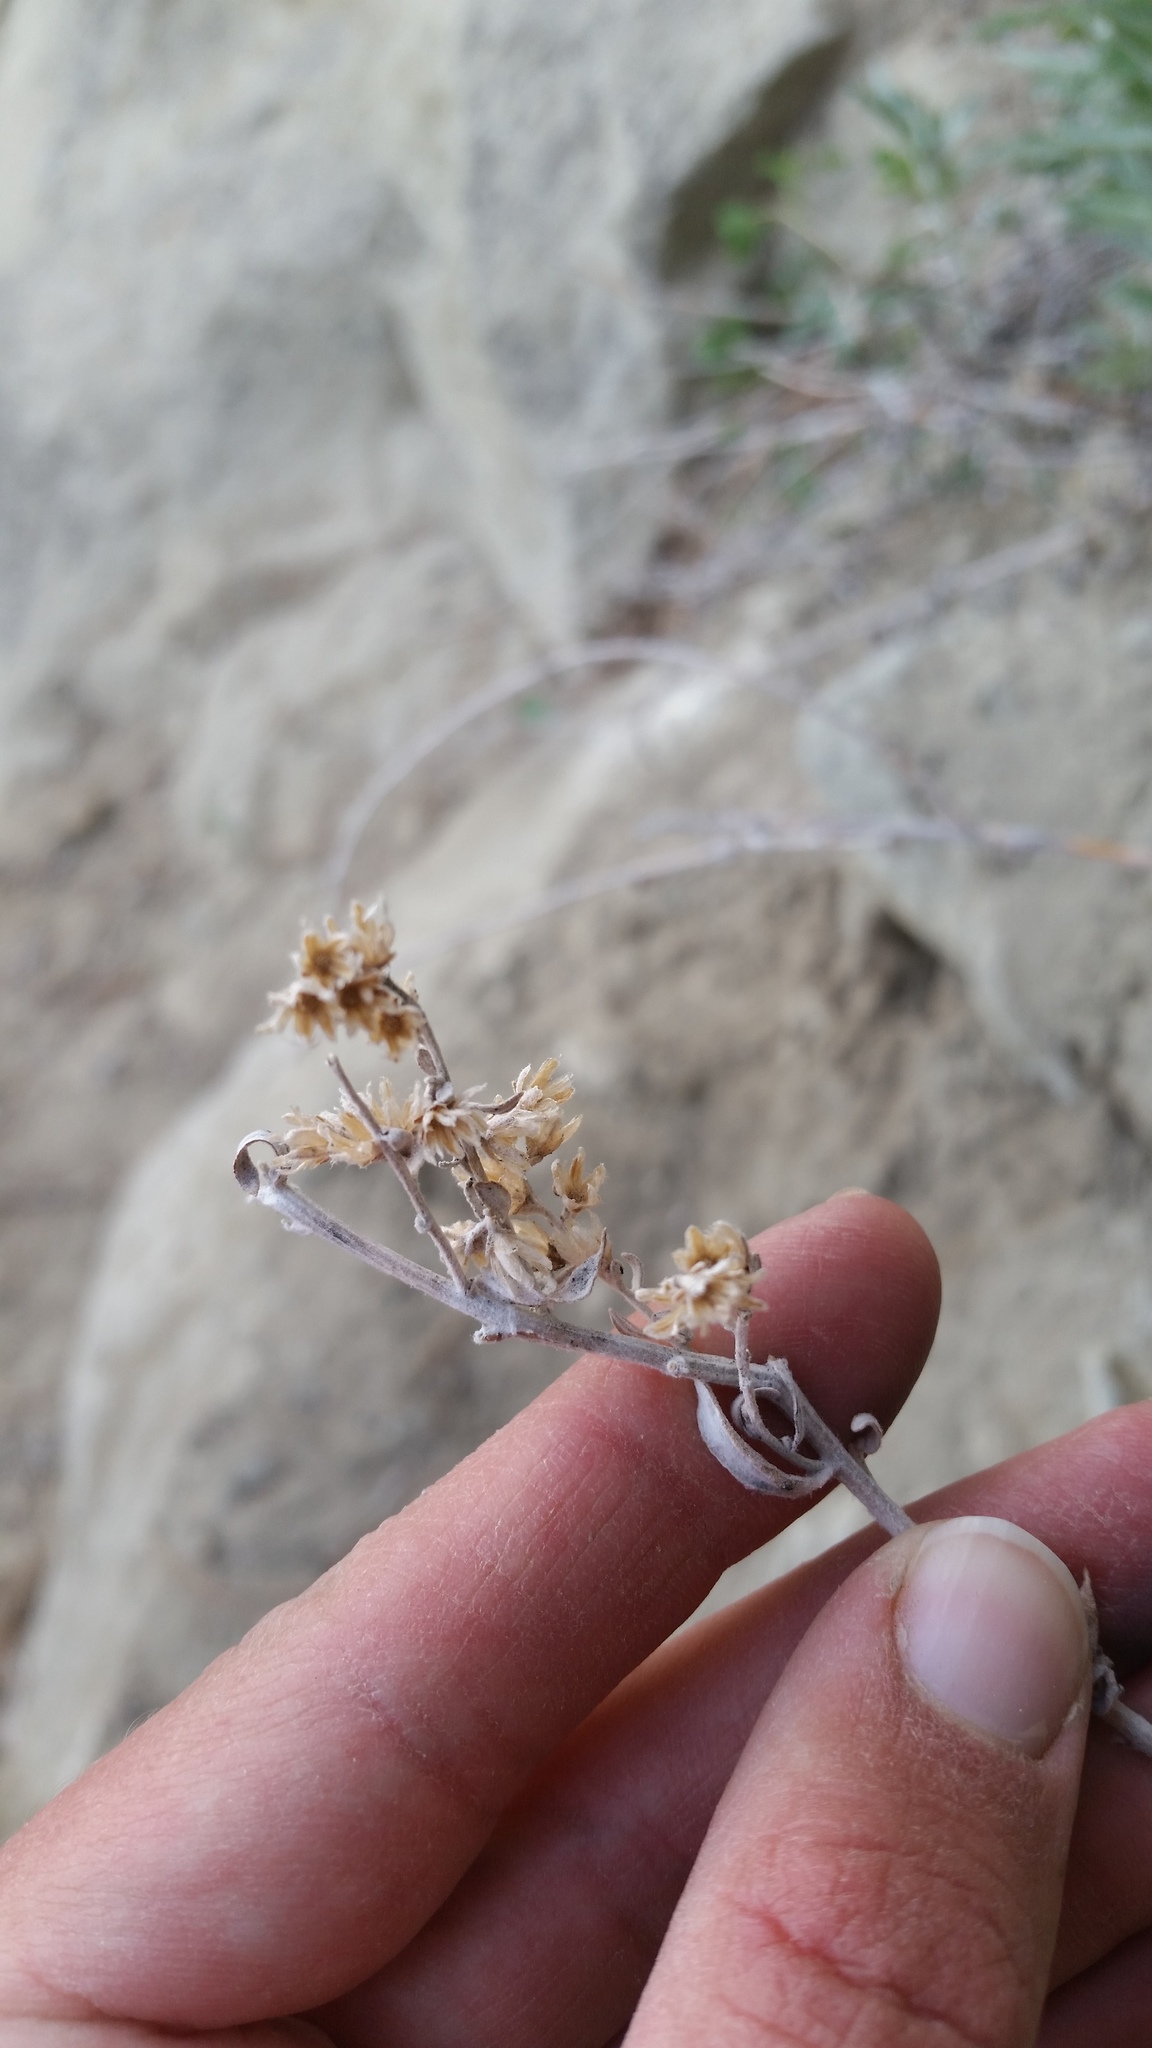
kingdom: Plantae
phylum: Tracheophyta
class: Magnoliopsida
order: Asterales
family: Asteraceae
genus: Artemisia
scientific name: Artemisia ludoviciana
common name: Western mugwort
